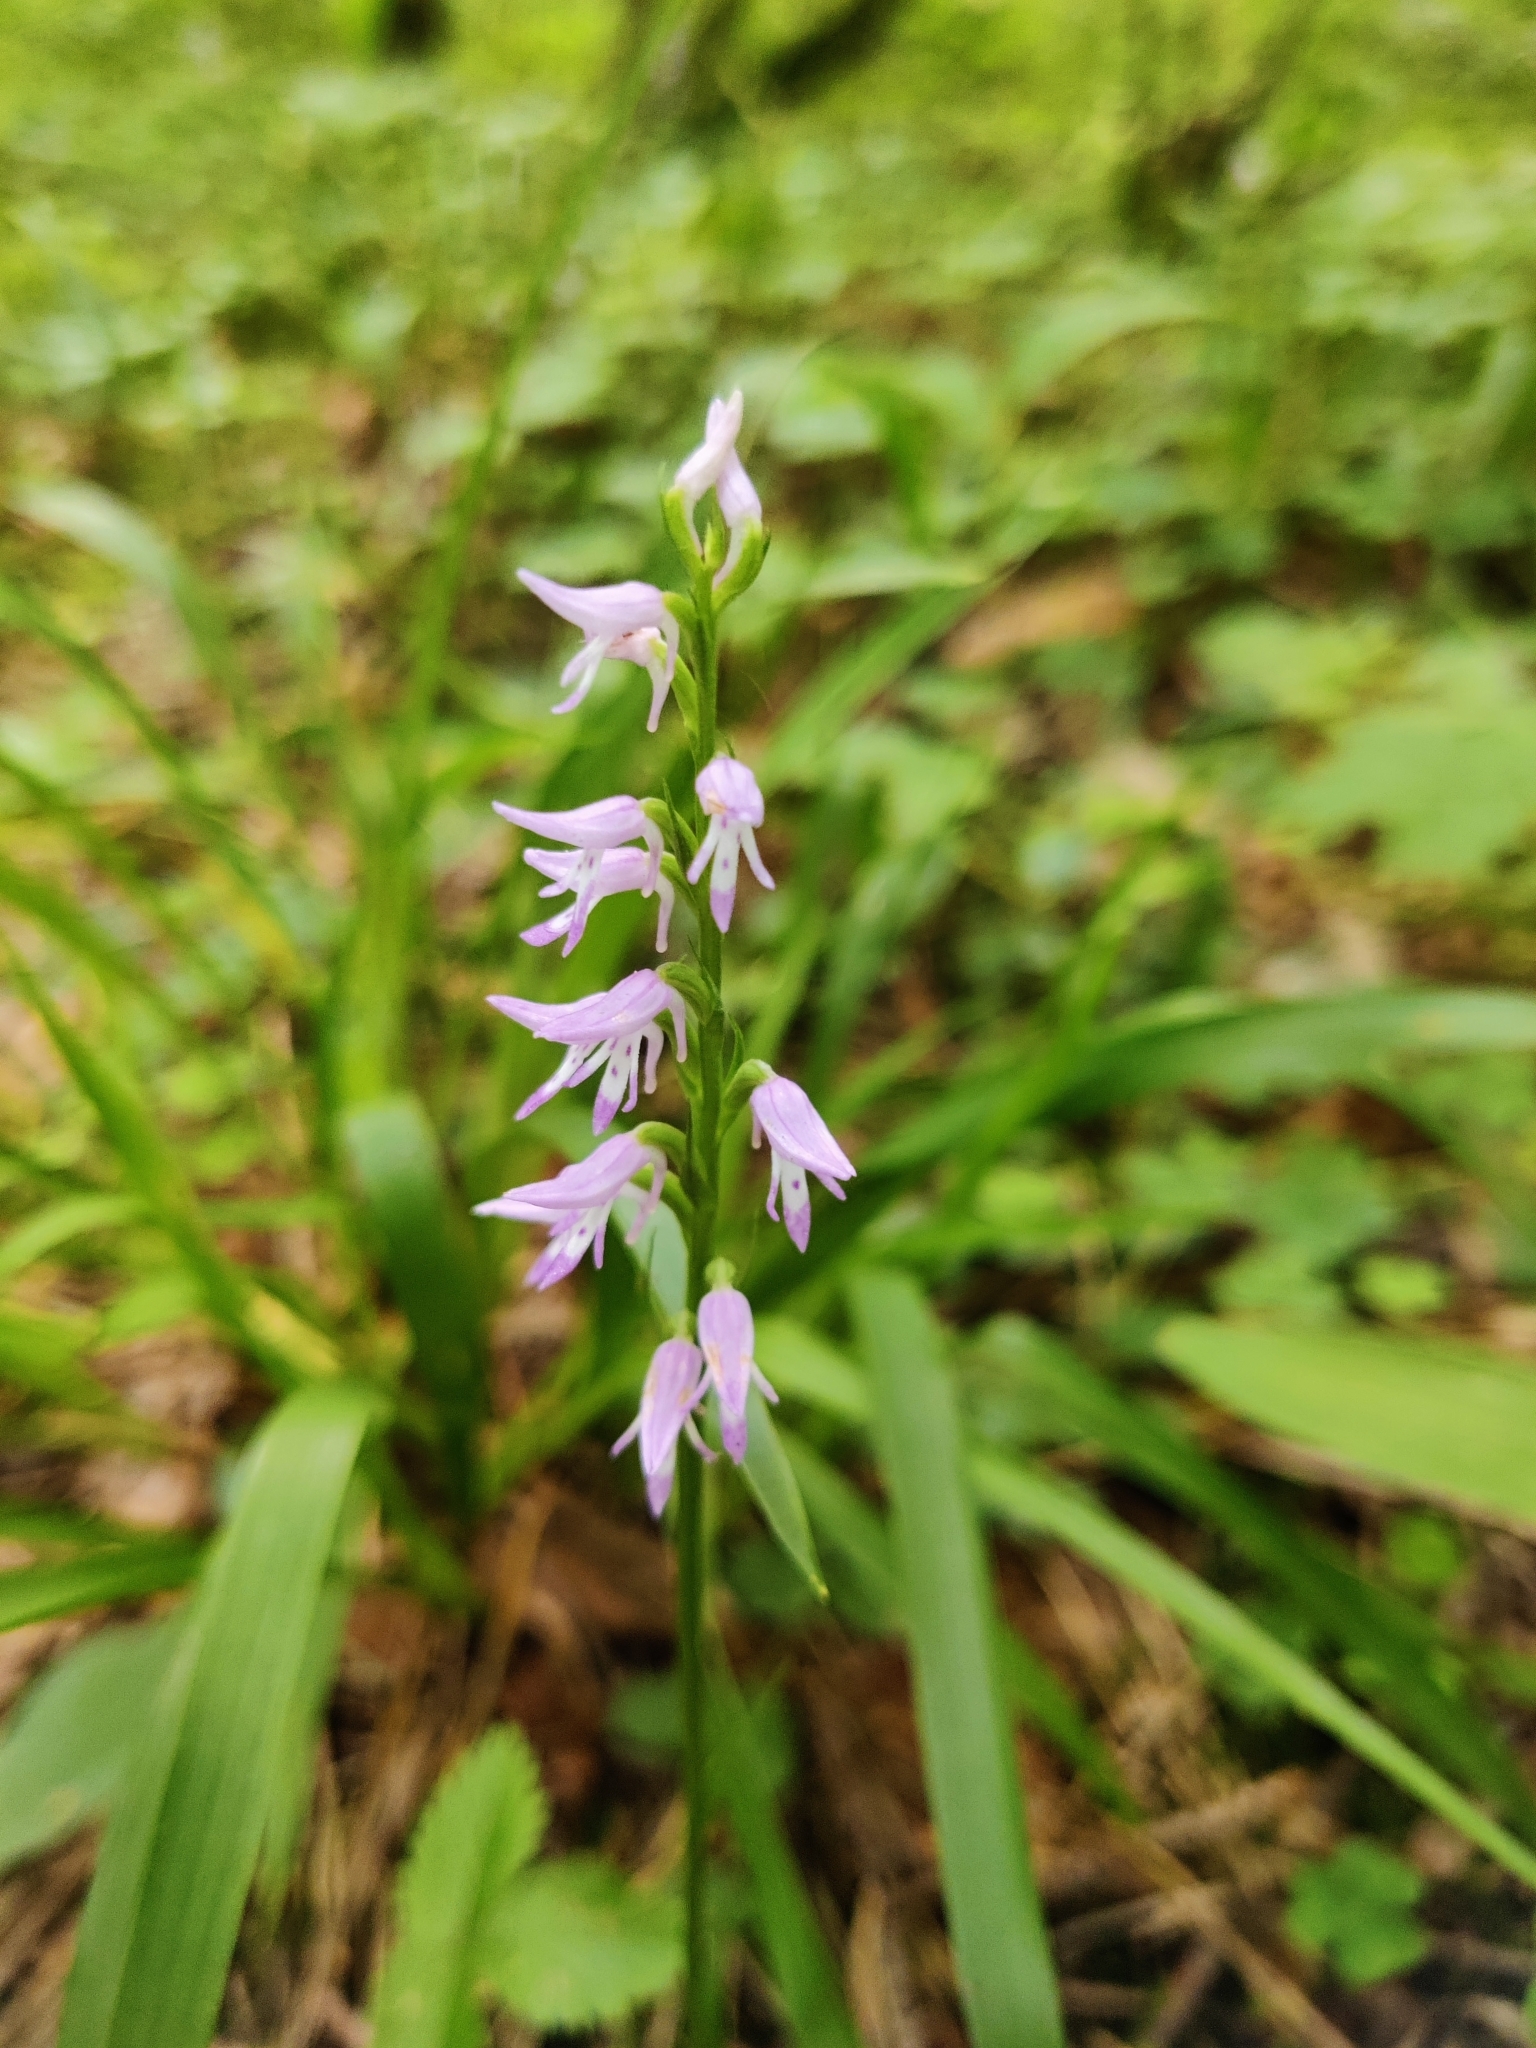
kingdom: Plantae
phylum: Tracheophyta
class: Liliopsida
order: Asparagales
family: Orchidaceae
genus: Hemipilia
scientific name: Hemipilia cucullata
